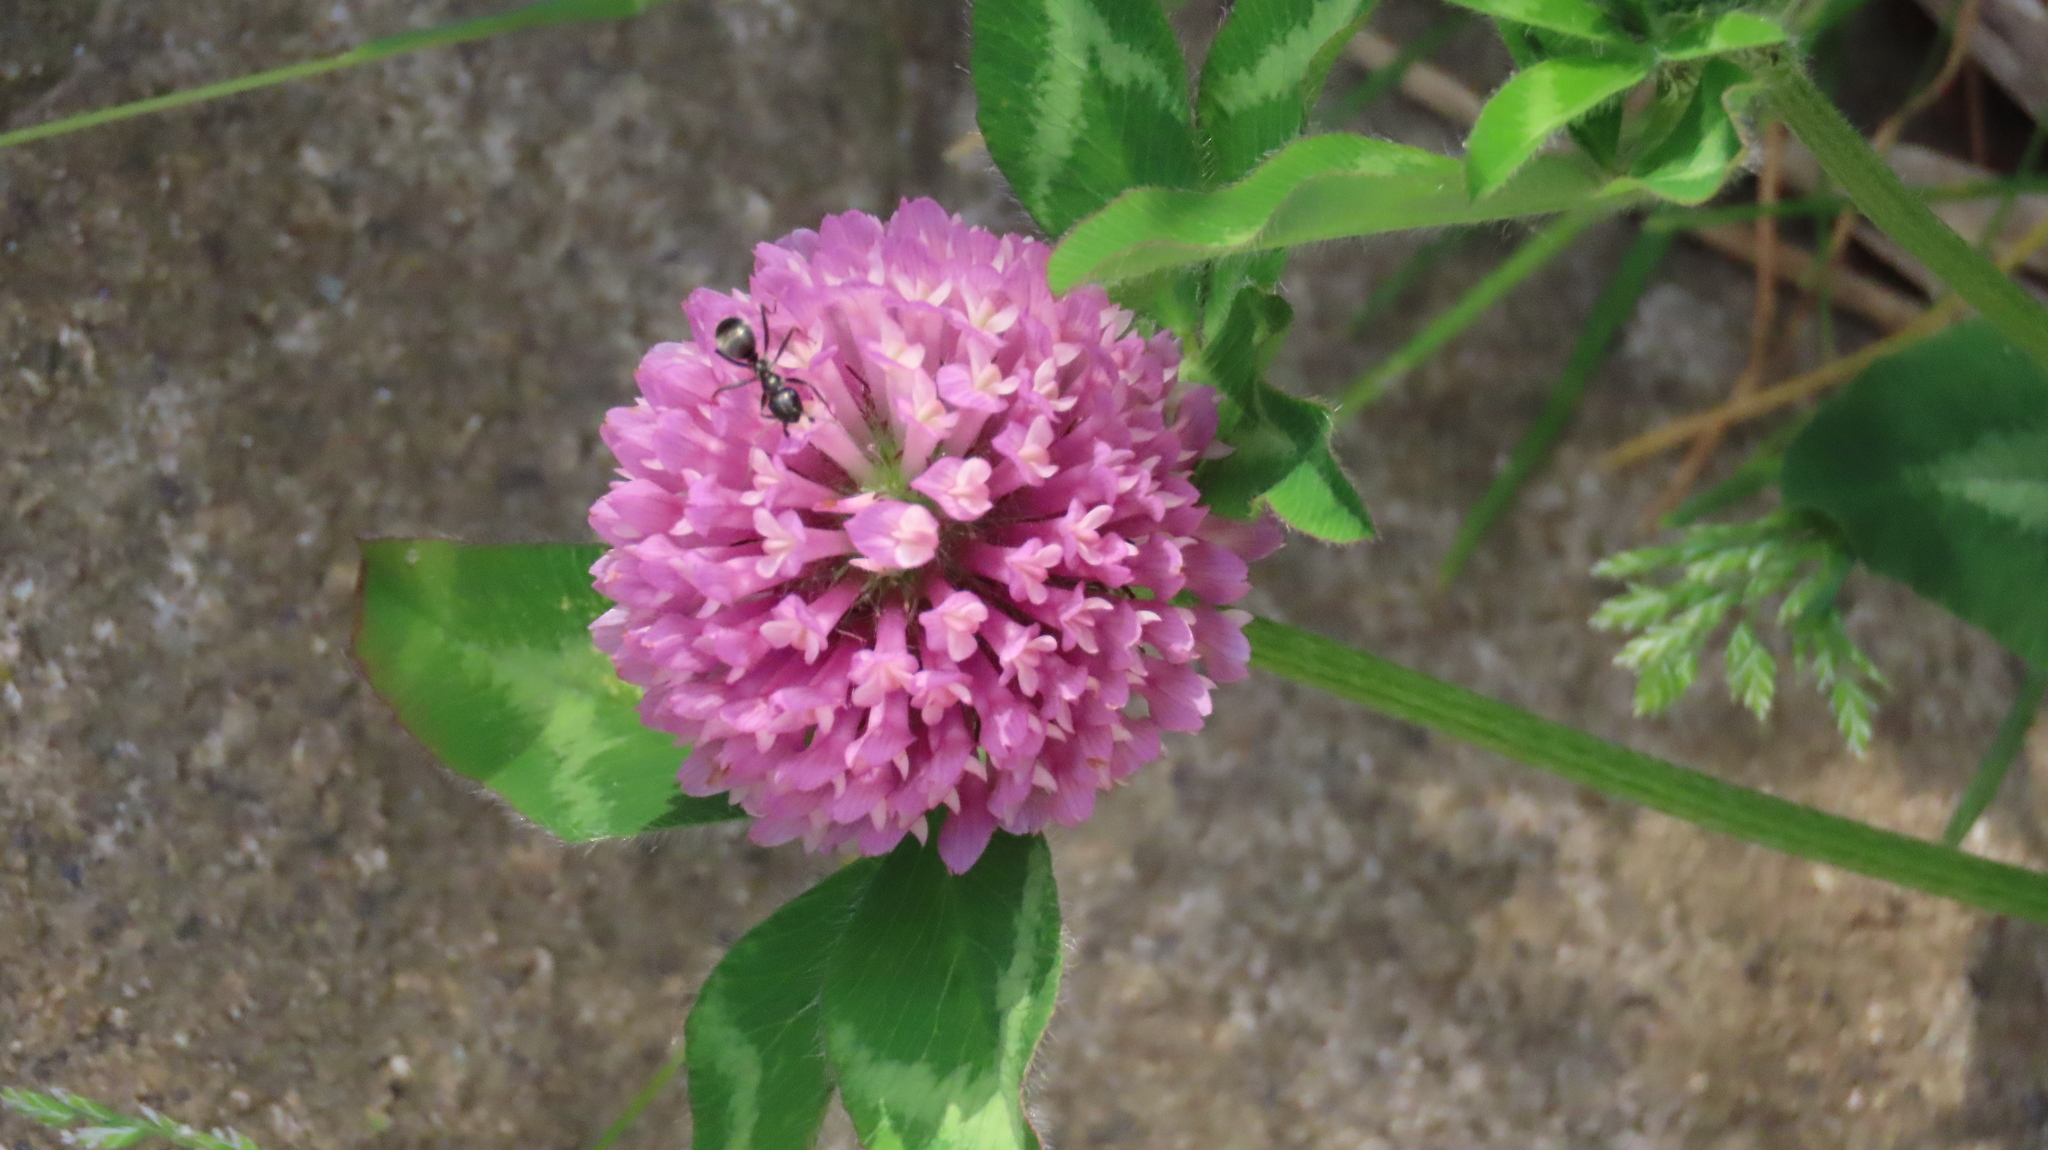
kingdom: Plantae
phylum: Tracheophyta
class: Magnoliopsida
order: Fabales
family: Fabaceae
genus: Trifolium
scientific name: Trifolium pratense
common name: Red clover
